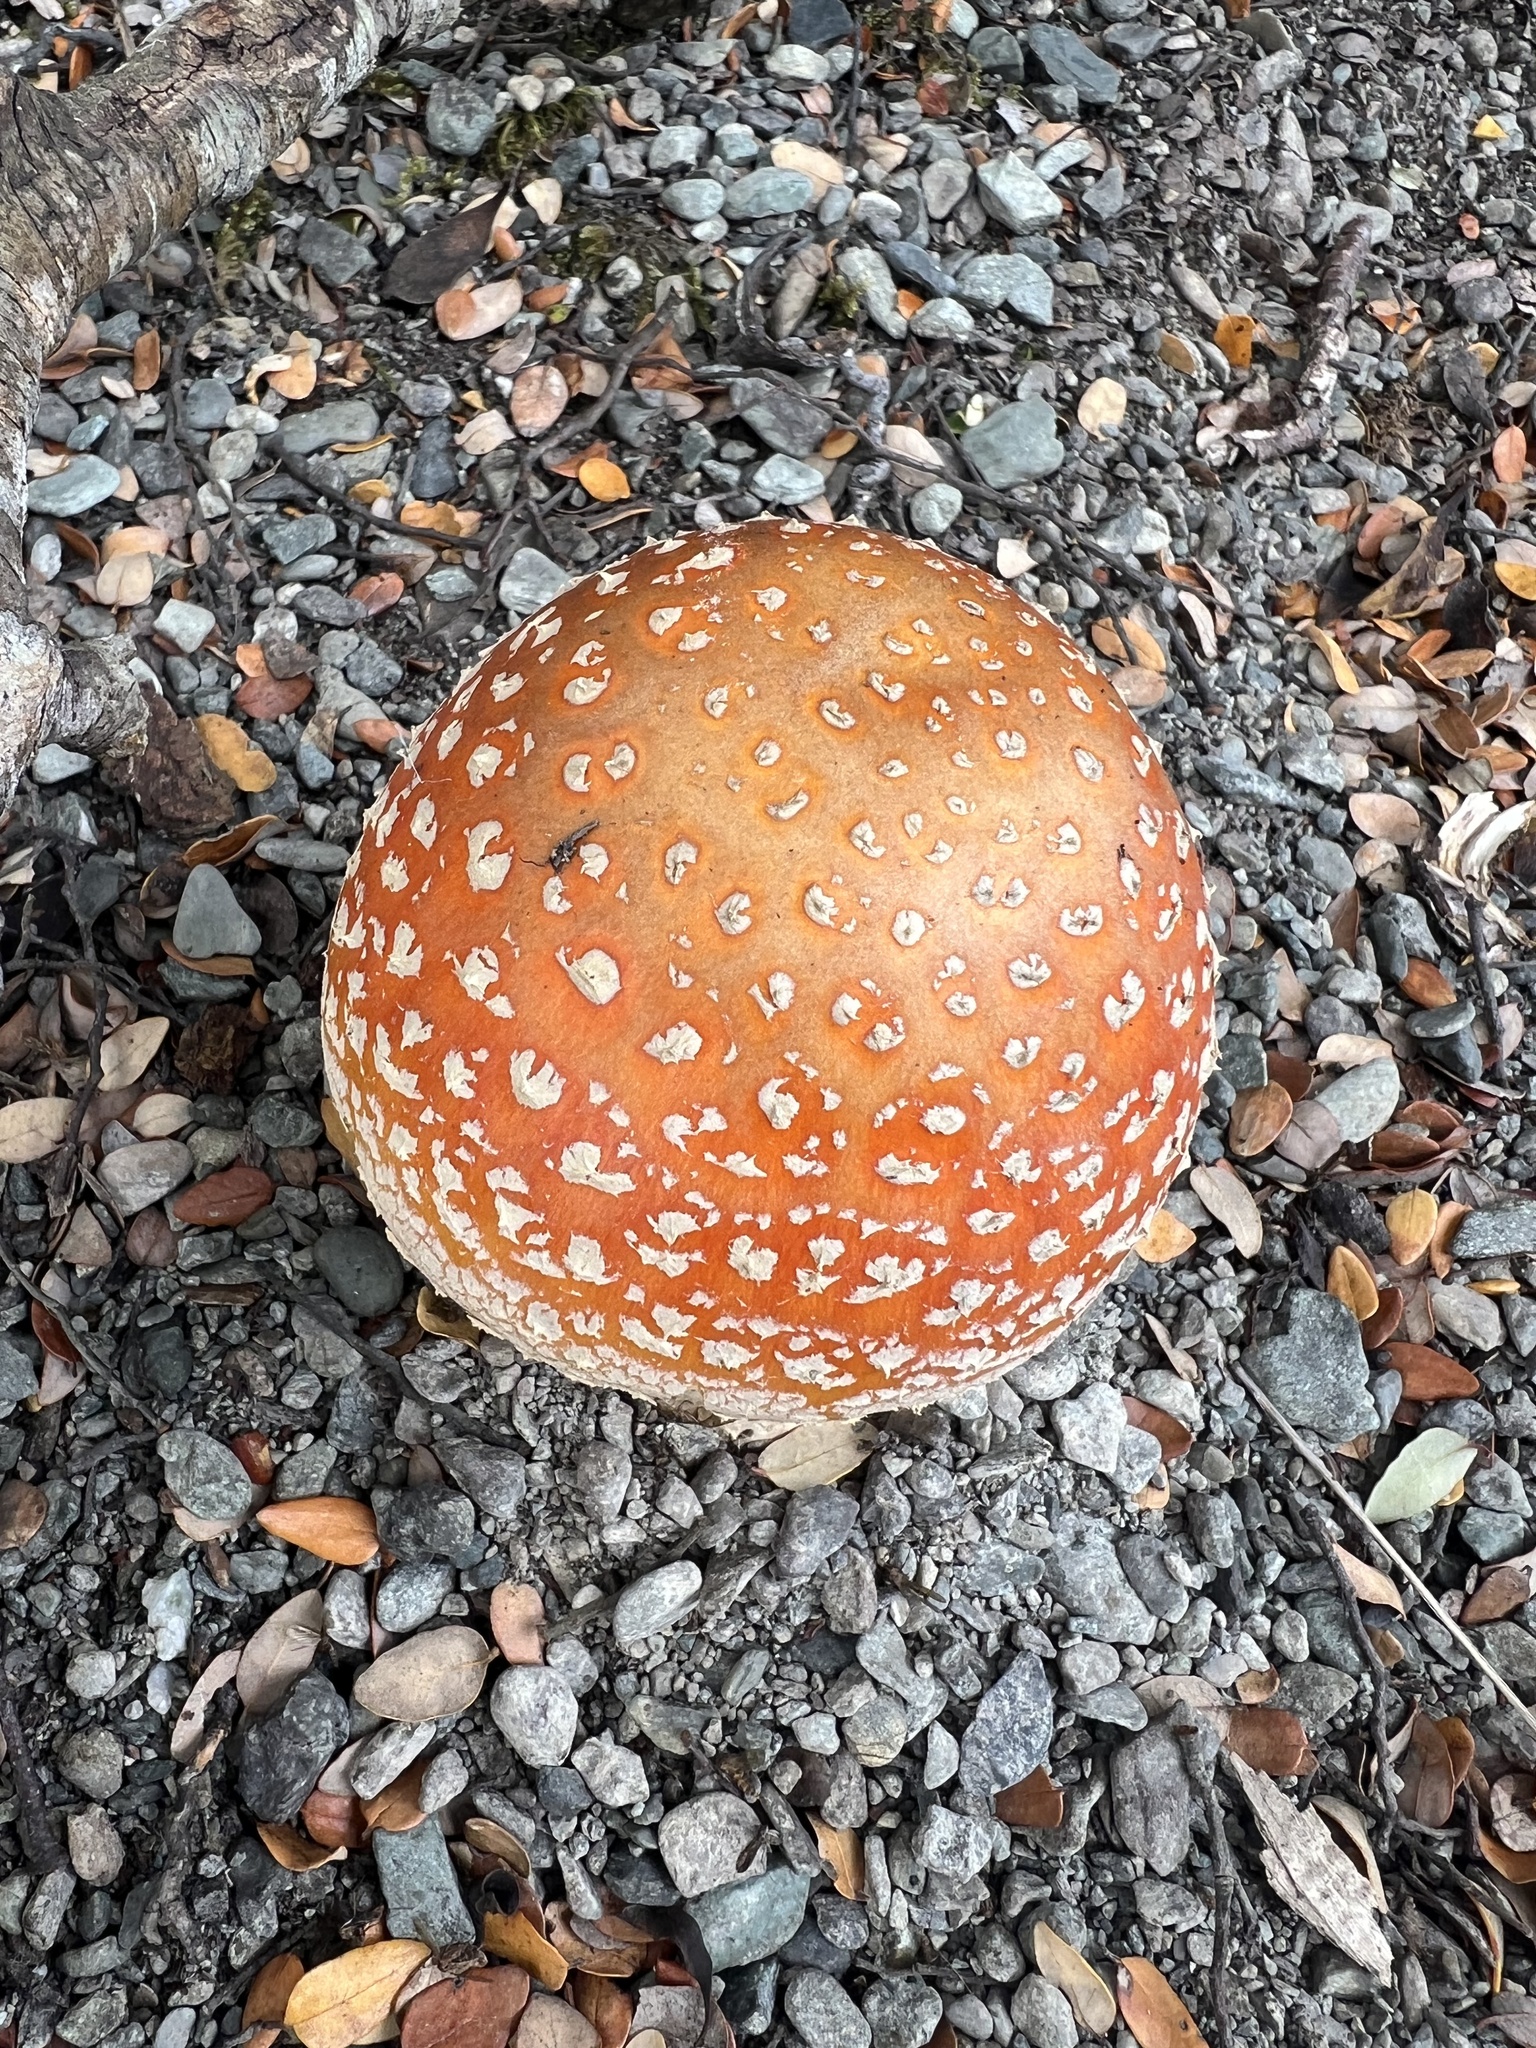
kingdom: Fungi
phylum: Basidiomycota
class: Agaricomycetes
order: Agaricales
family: Amanitaceae
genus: Amanita
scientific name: Amanita muscaria
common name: Fly agaric
